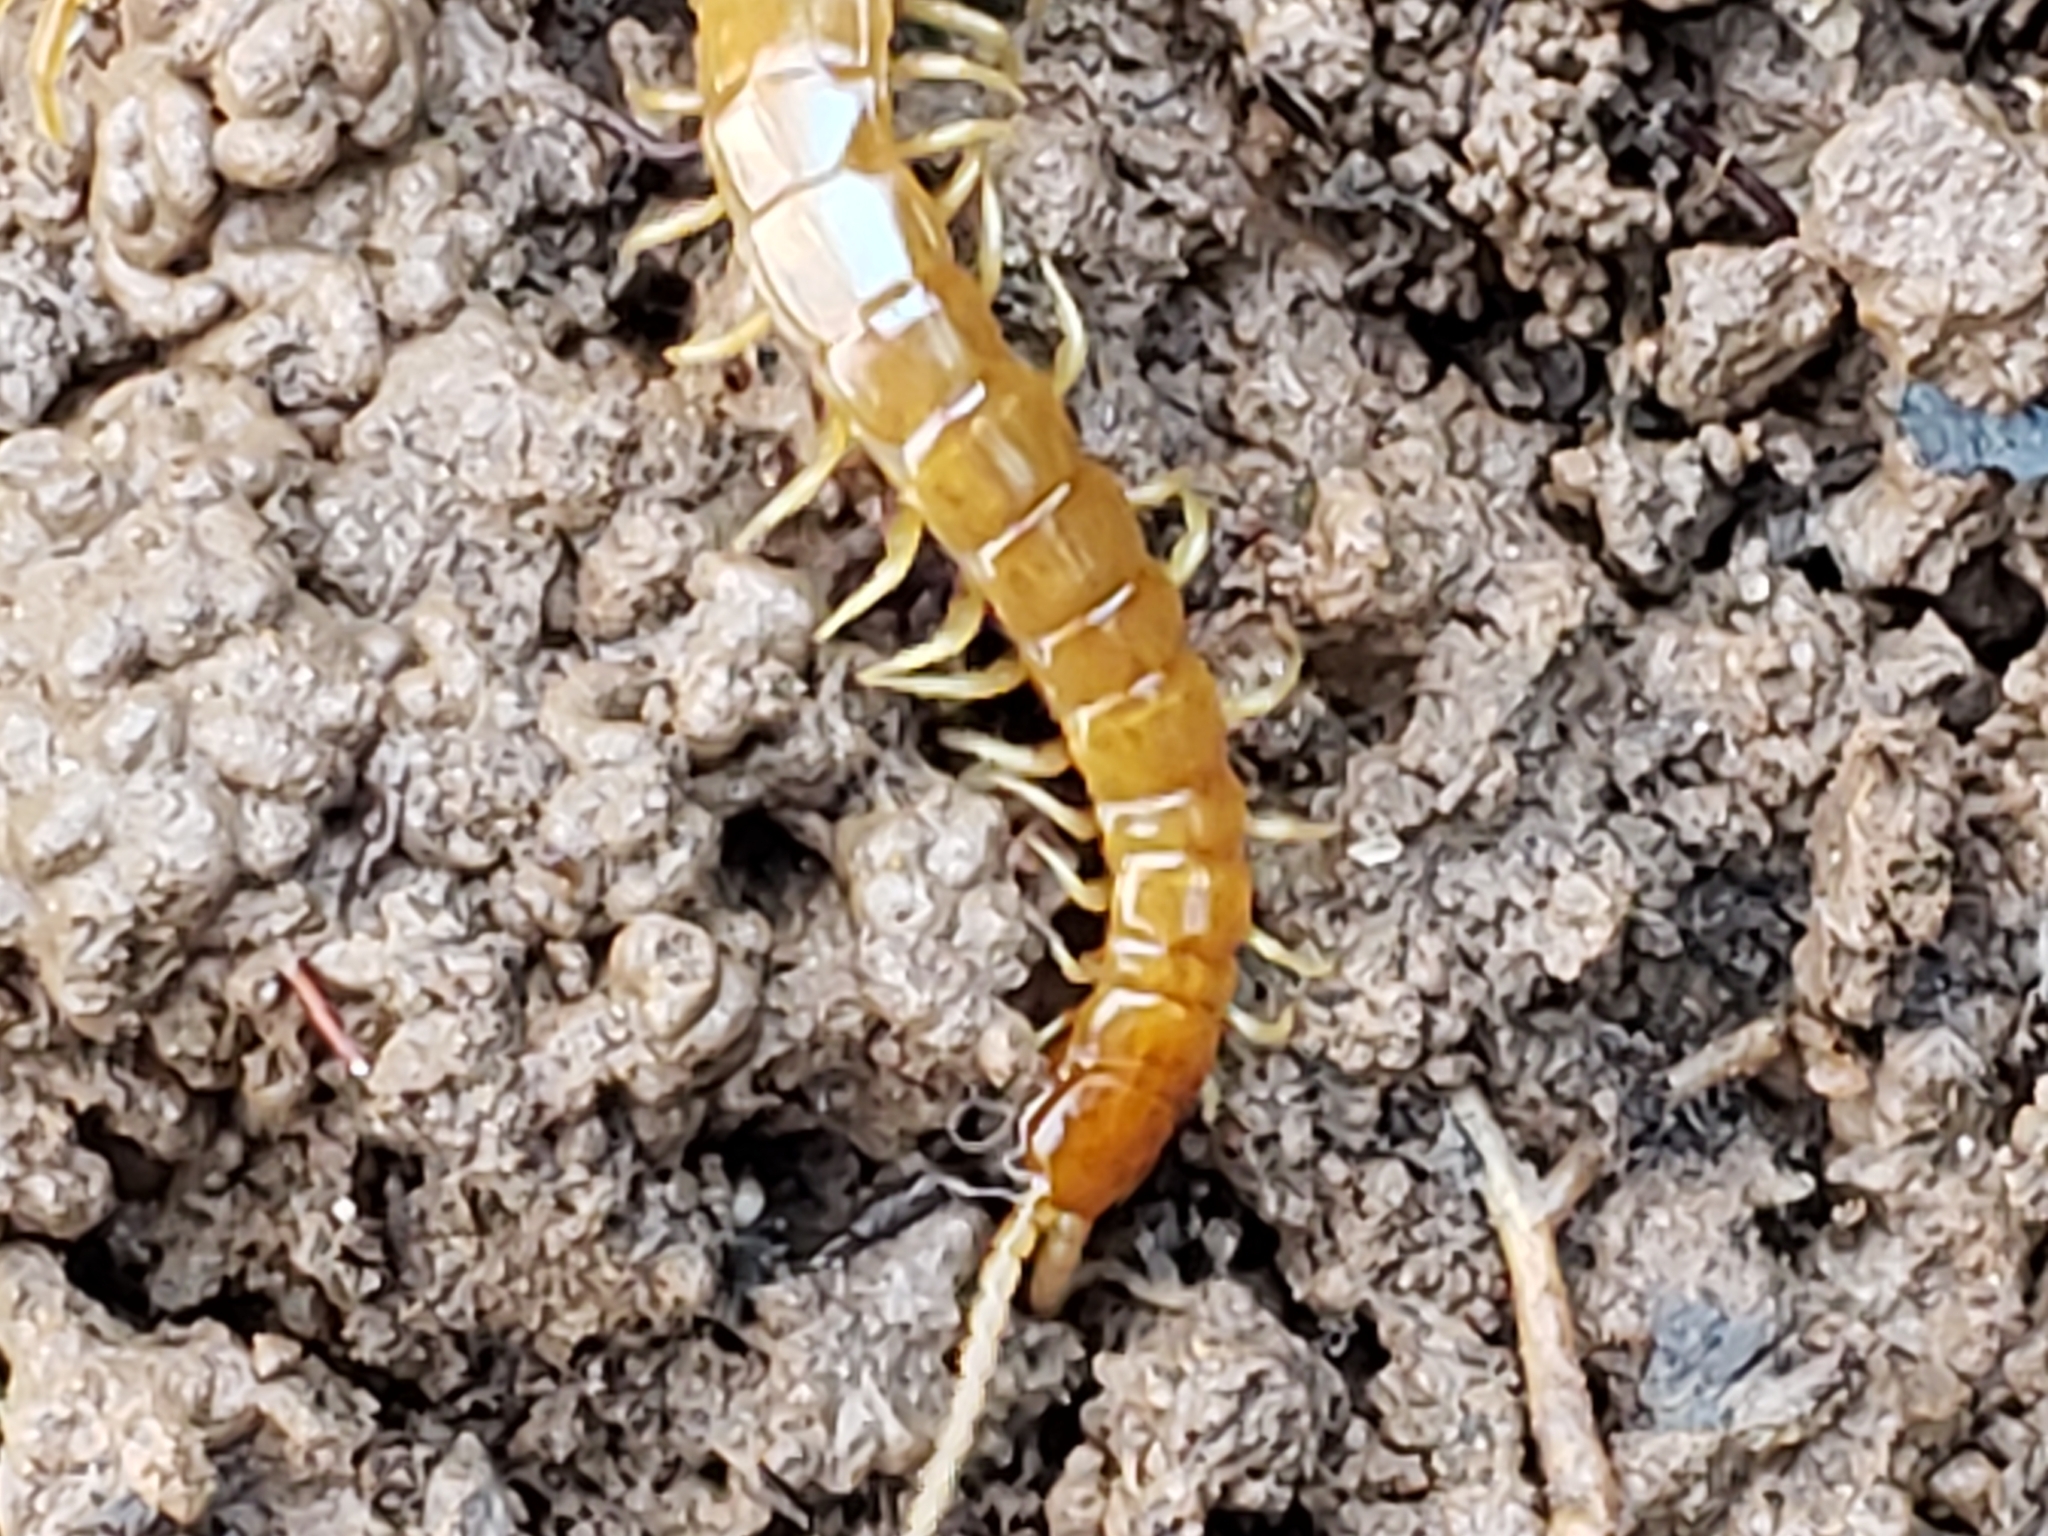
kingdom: Animalia
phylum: Arthropoda
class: Chilopoda
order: Scolopendromorpha
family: Scolopocryptopidae
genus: Scolopocryptops
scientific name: Scolopocryptops peregrinator
